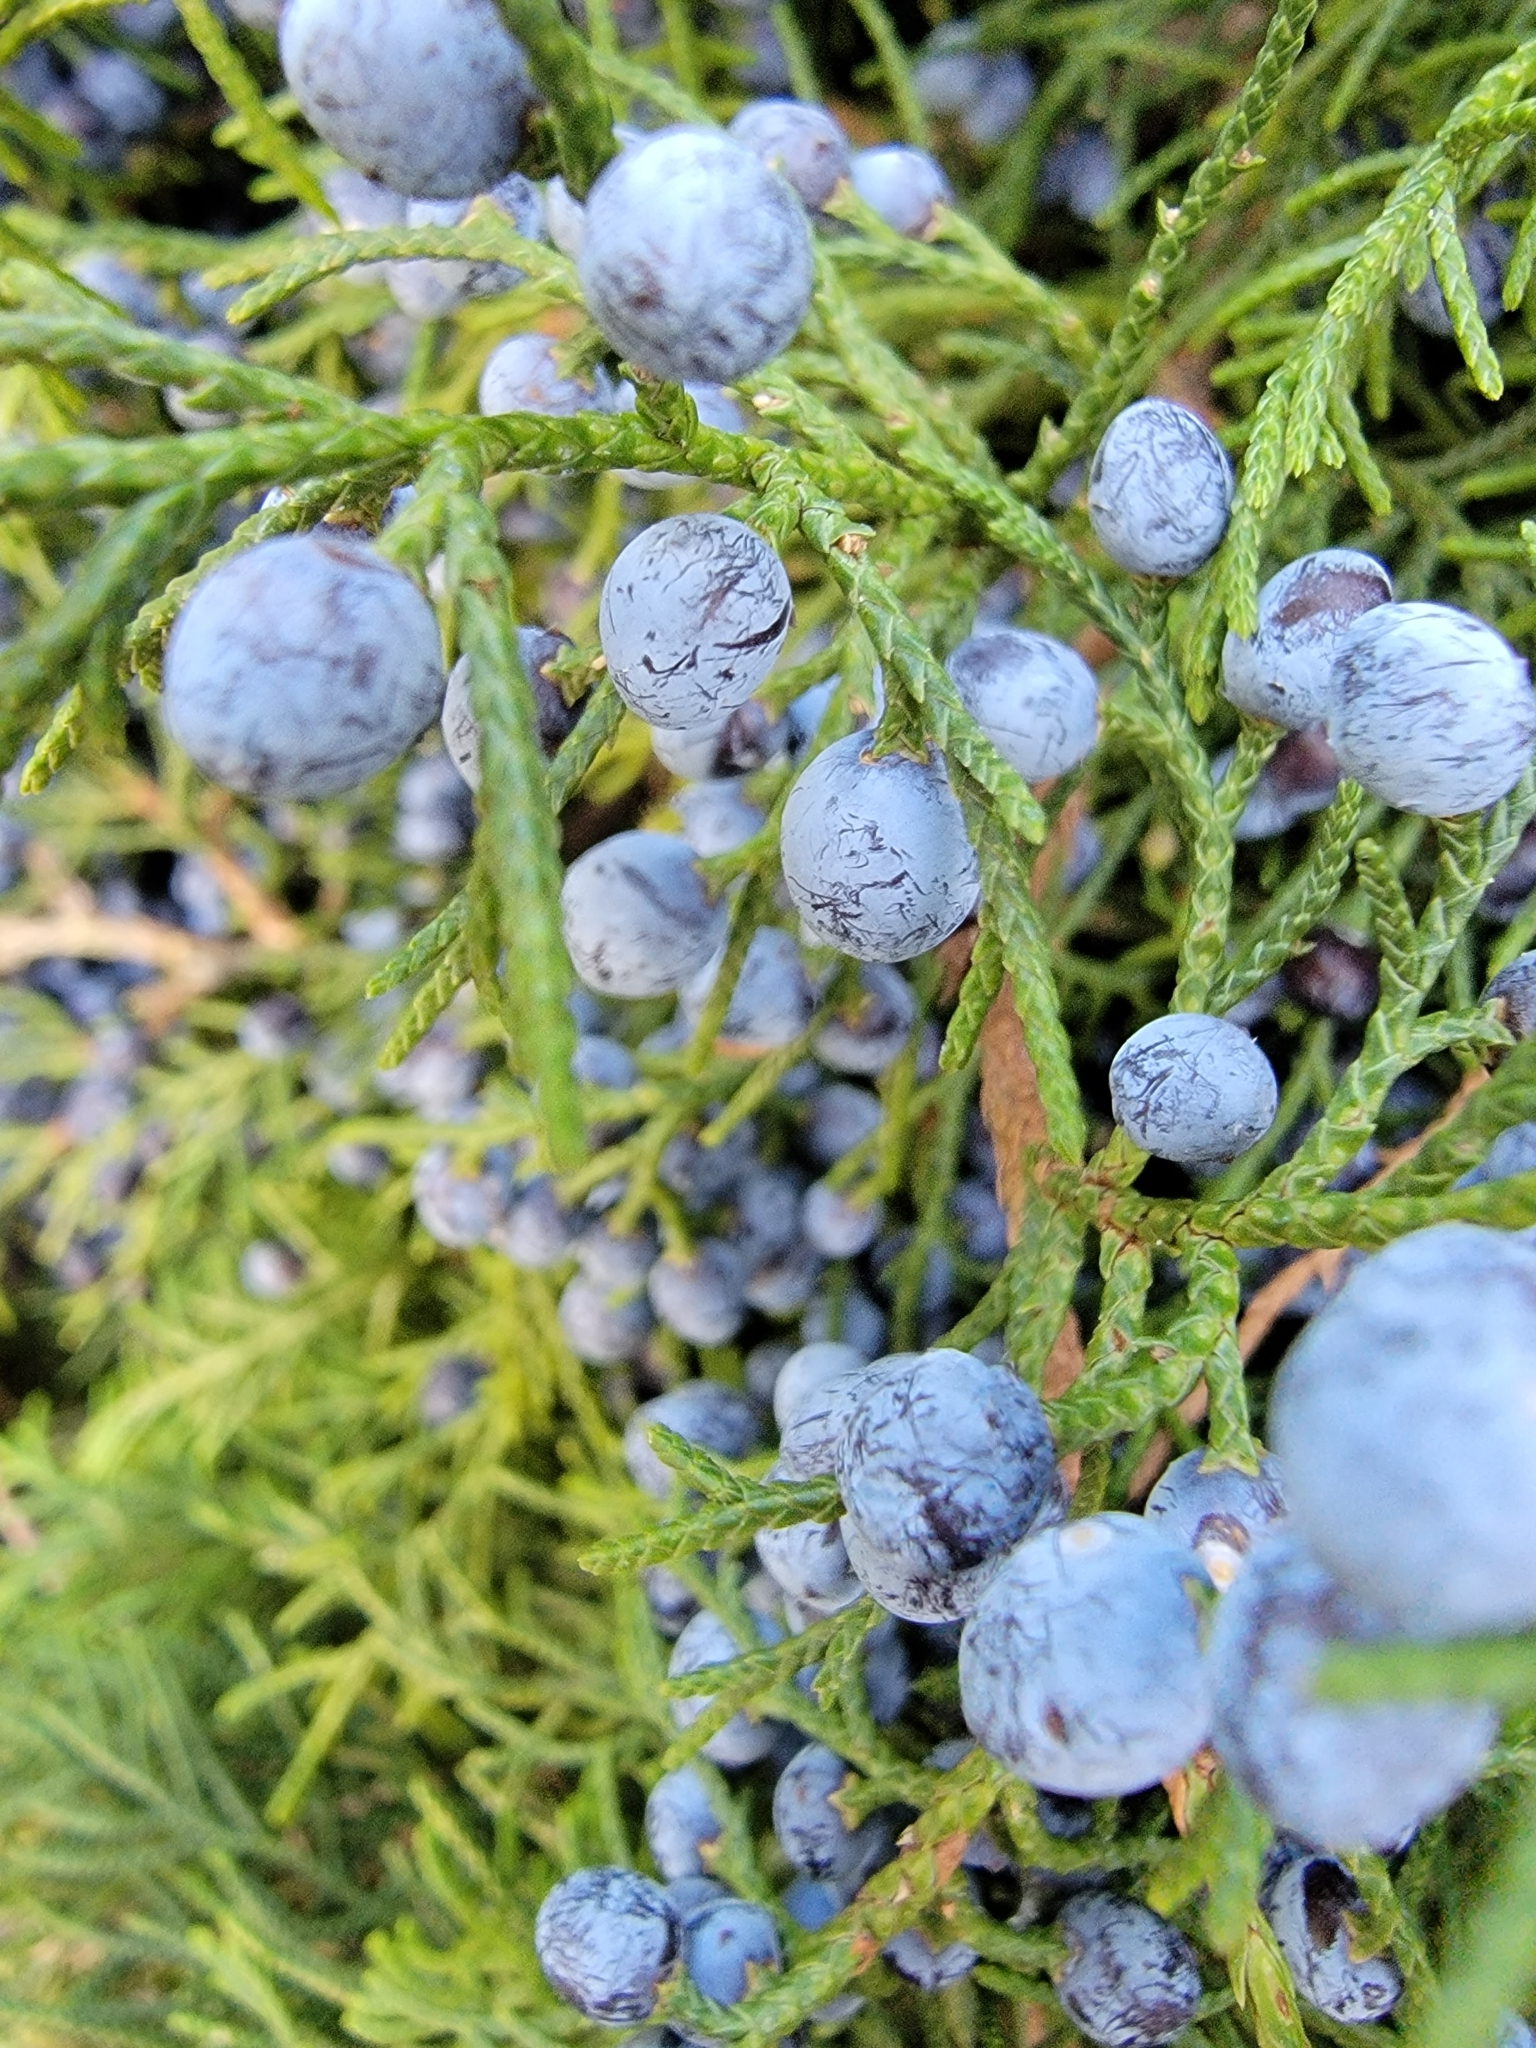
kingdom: Plantae
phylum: Tracheophyta
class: Pinopsida
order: Pinales
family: Cupressaceae
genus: Juniperus
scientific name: Juniperus virginiana
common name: Red juniper
